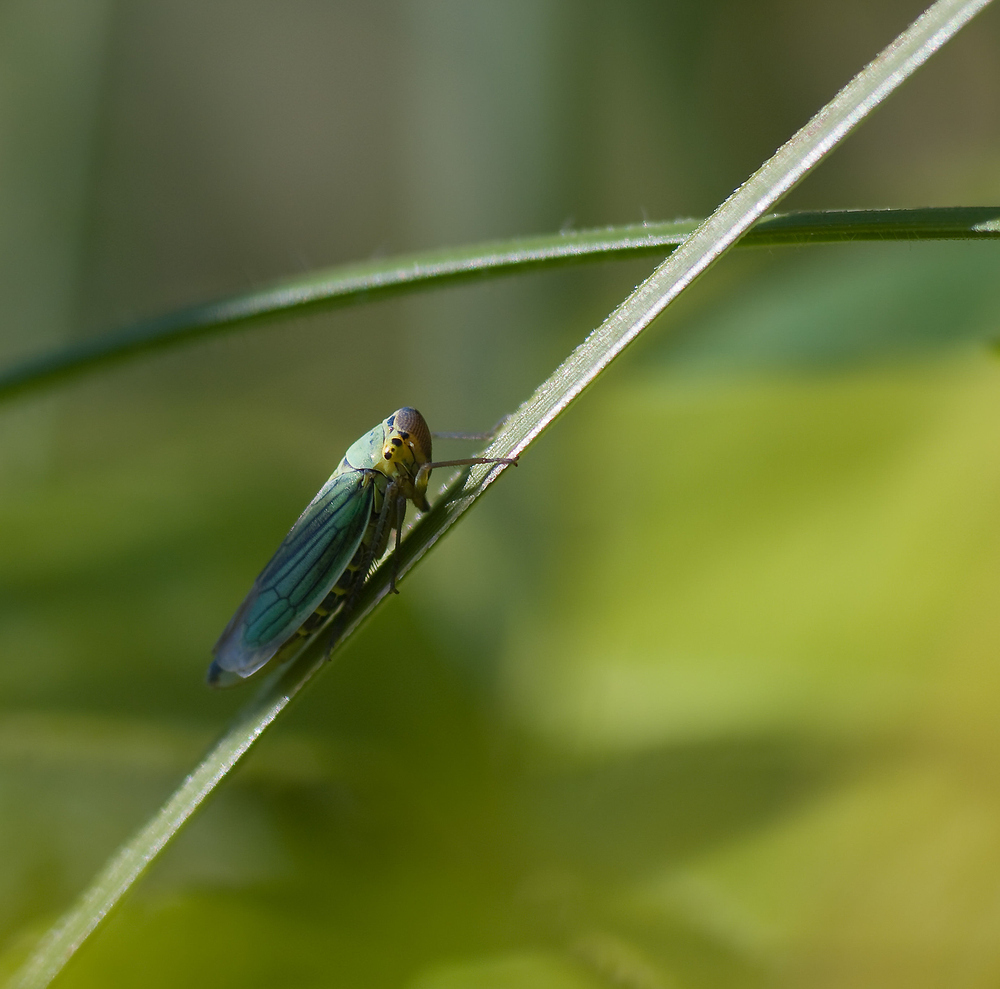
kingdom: Animalia
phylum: Arthropoda
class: Insecta
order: Hemiptera
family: Cicadellidae
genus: Cicadella
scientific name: Cicadella viridis
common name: Leafhopper
